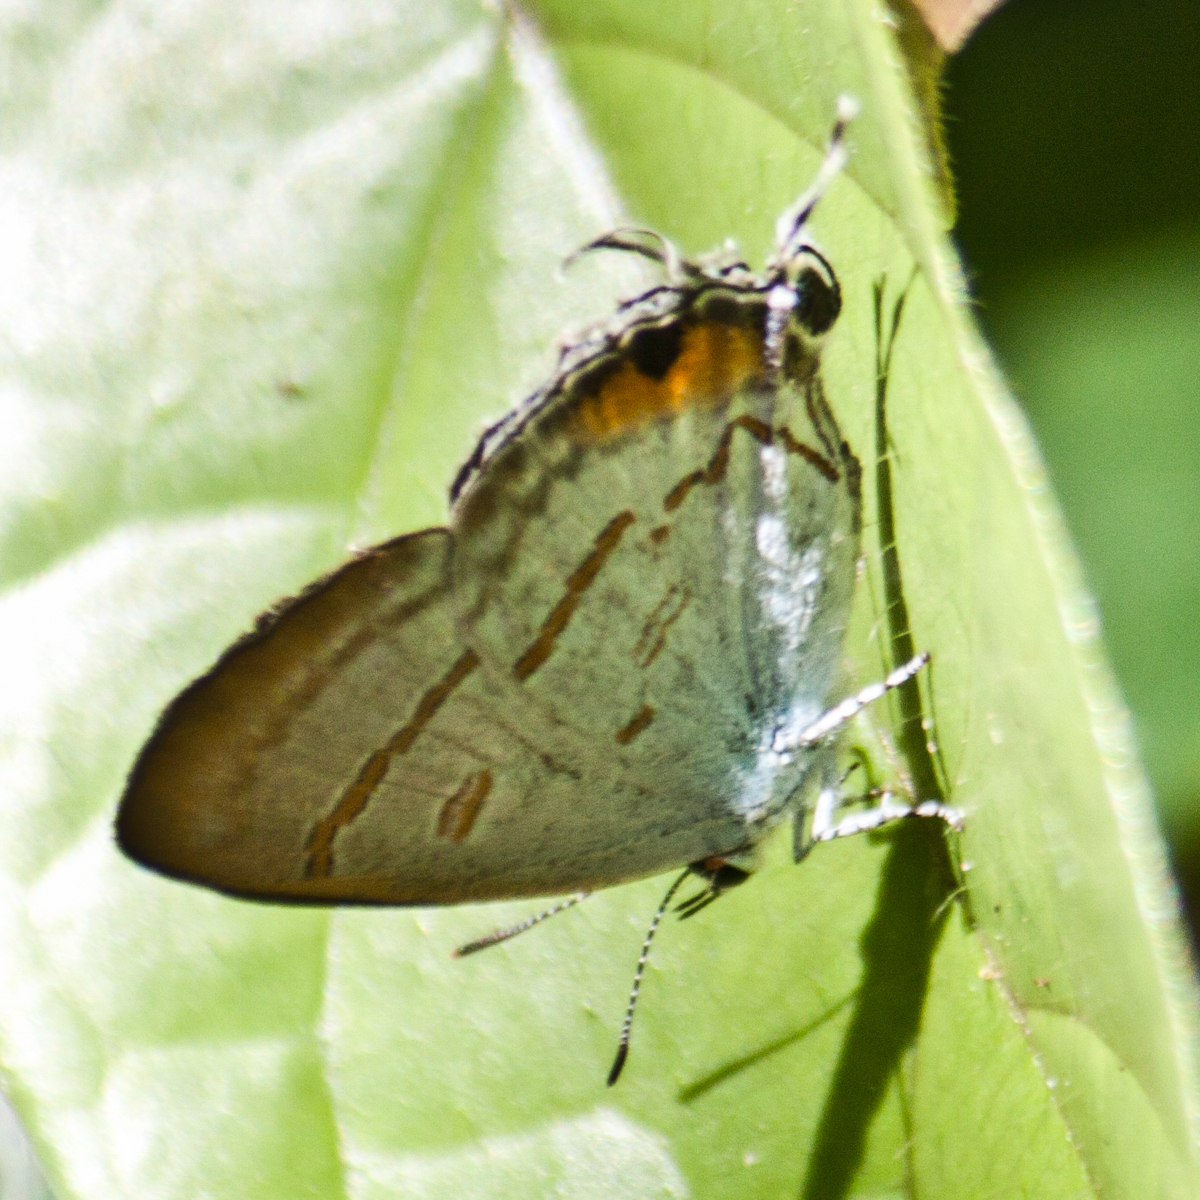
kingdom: Animalia
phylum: Arthropoda
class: Insecta
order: Lepidoptera
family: Lycaenidae
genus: Hypolycaena
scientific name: Hypolycaena thecloides
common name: Dark tit
